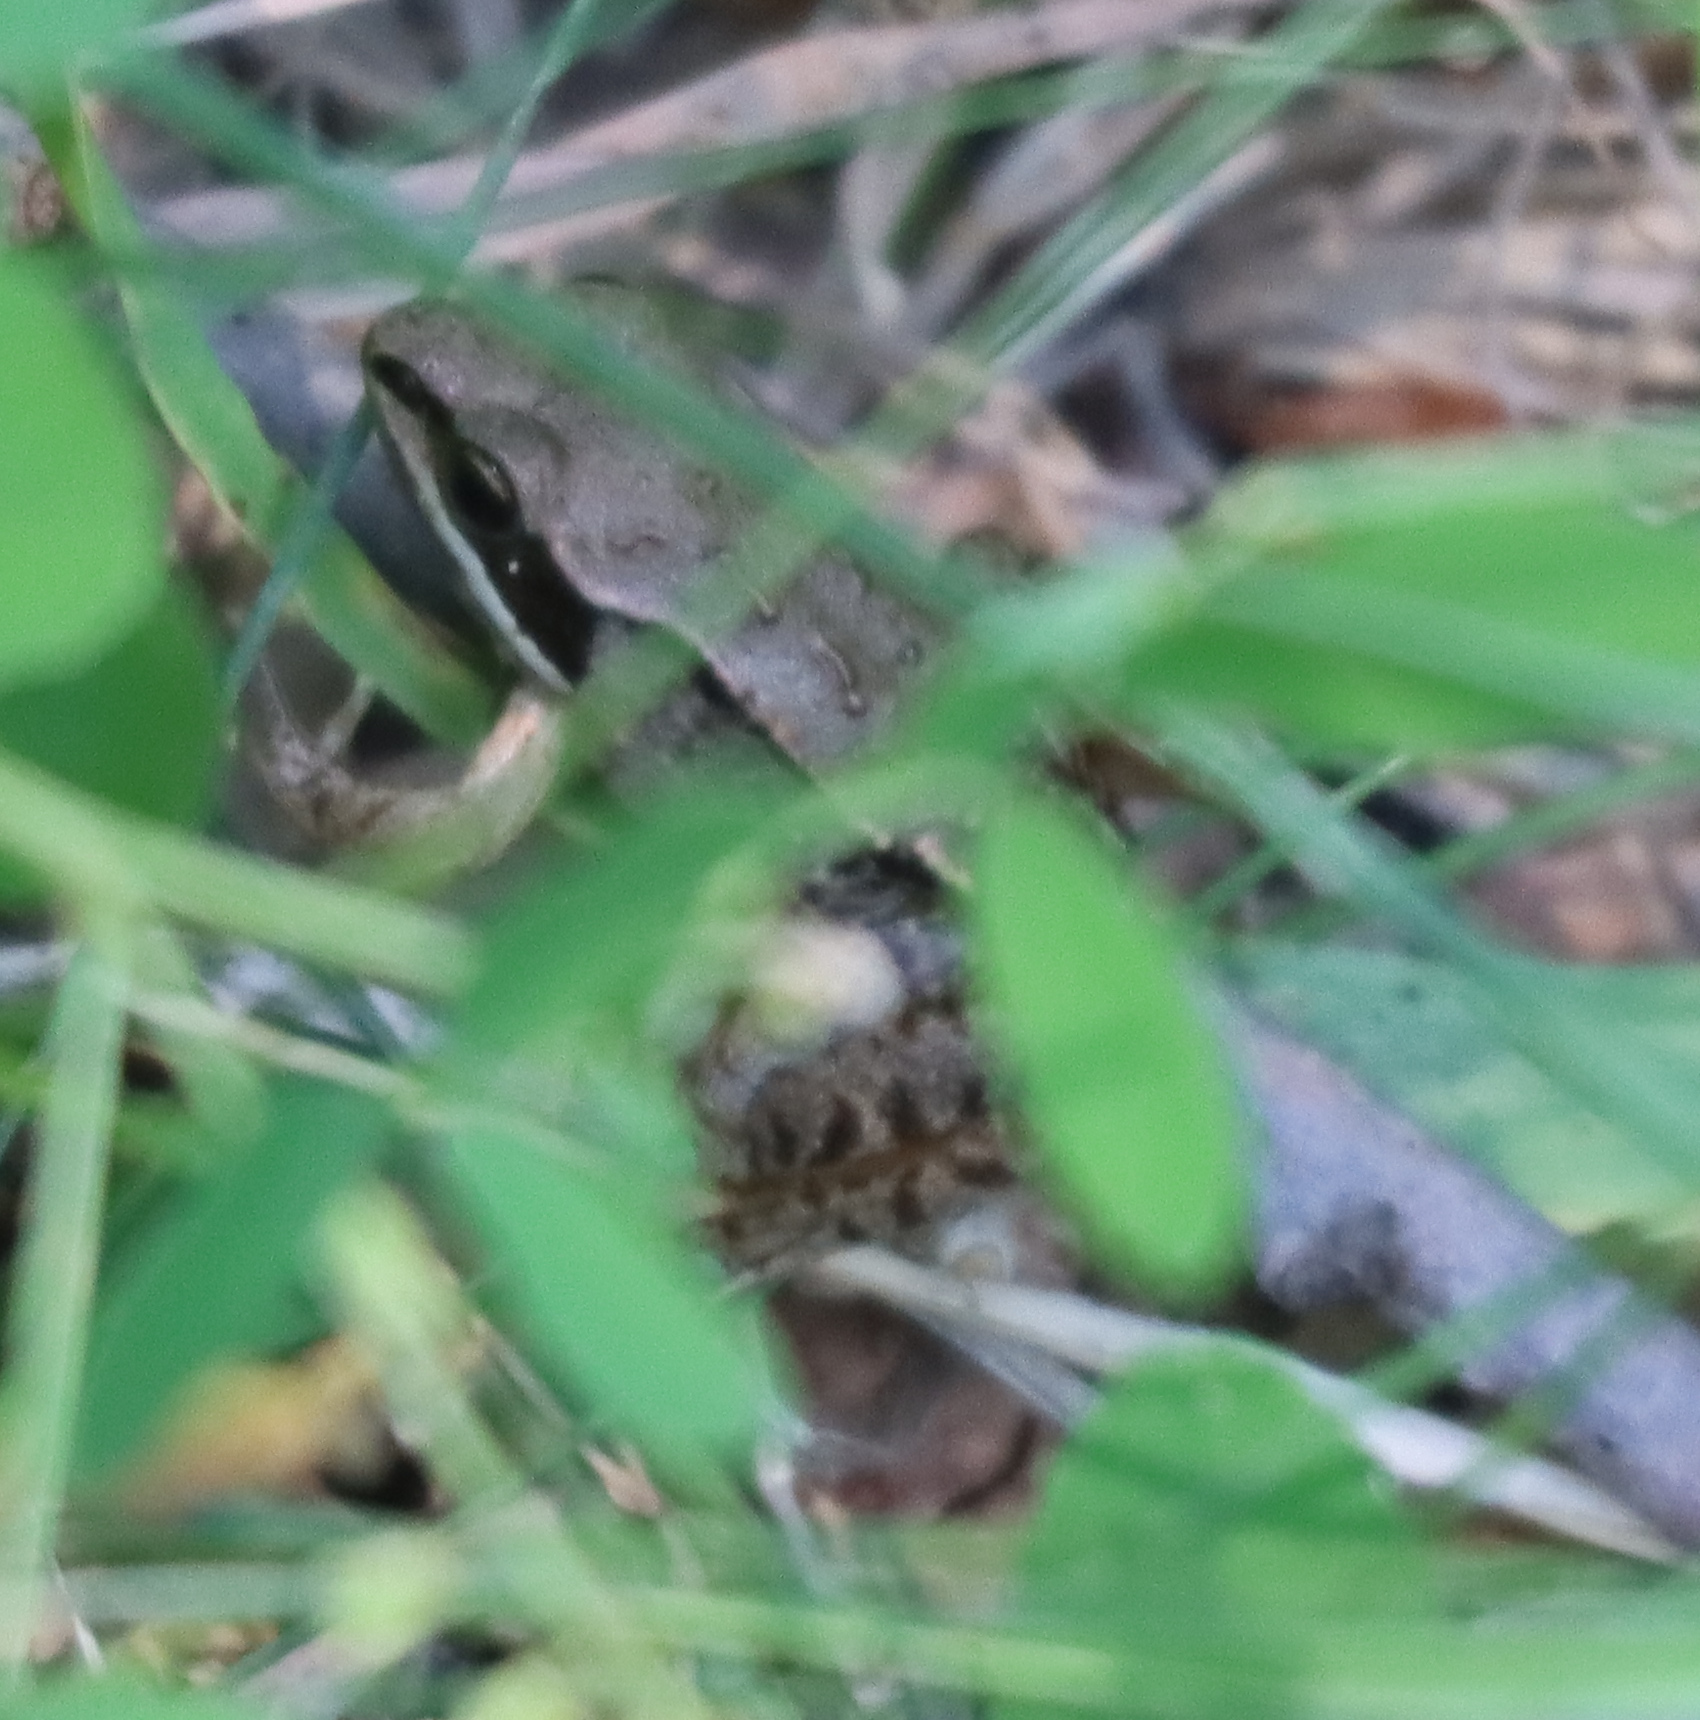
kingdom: Animalia
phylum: Chordata
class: Amphibia
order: Anura
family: Ranidae
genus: Lithobates
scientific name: Lithobates sylvaticus
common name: Wood frog
